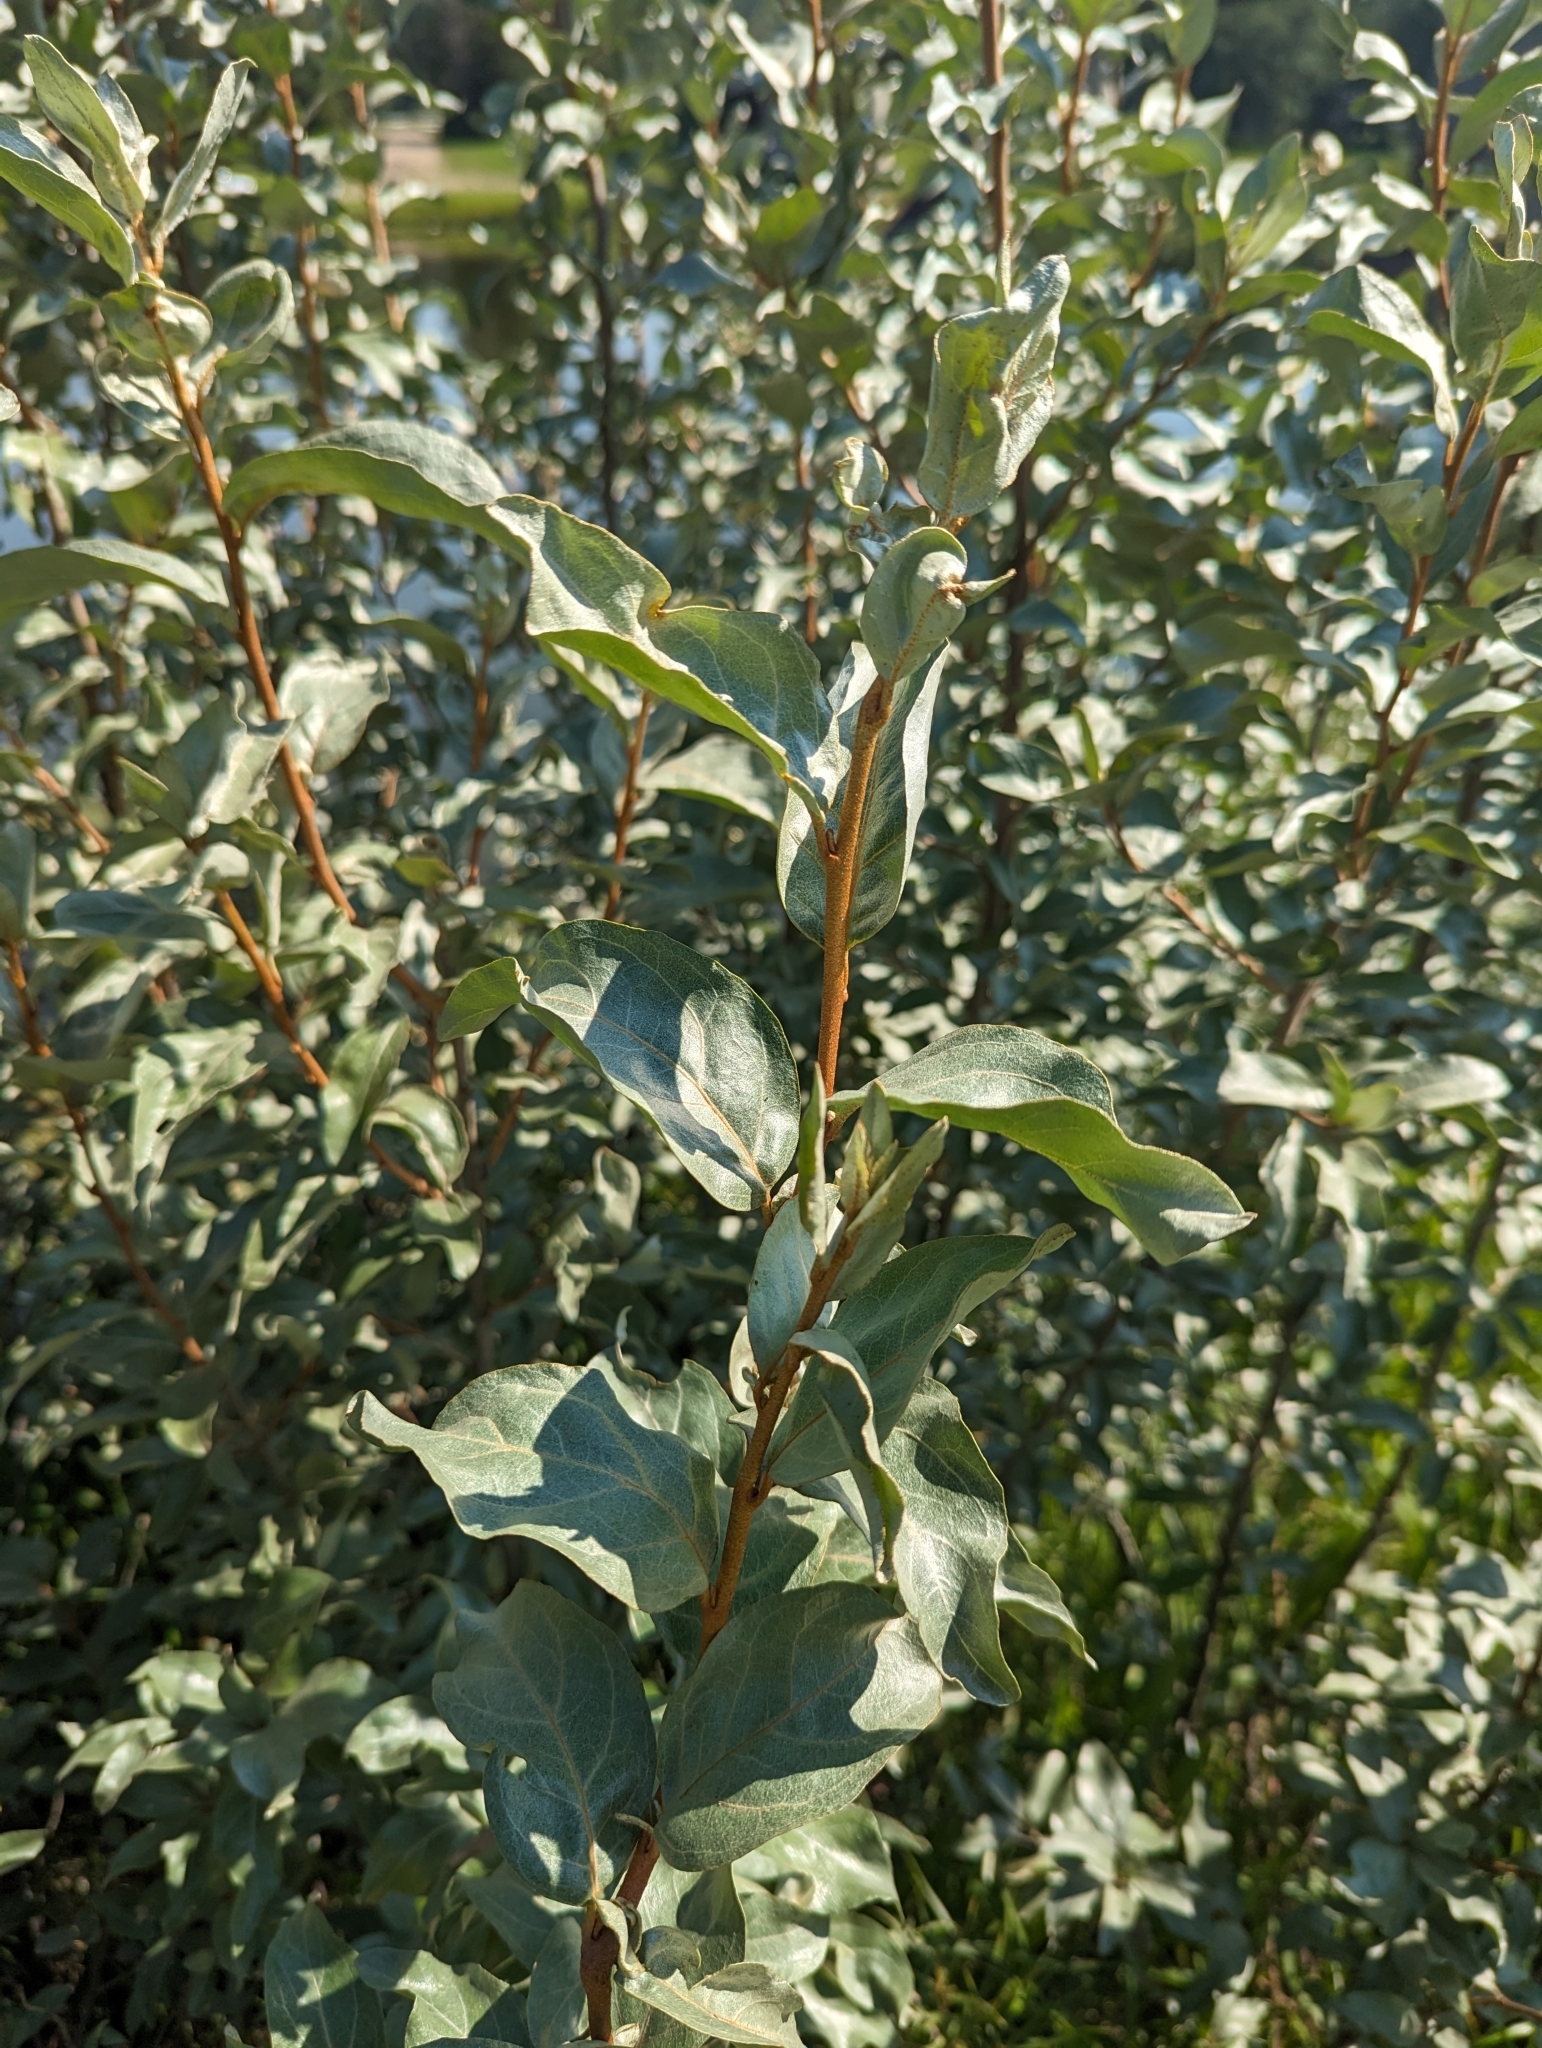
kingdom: Plantae
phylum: Tracheophyta
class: Magnoliopsida
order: Rosales
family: Elaeagnaceae
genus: Elaeagnus
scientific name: Elaeagnus commutata
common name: Silverberry
